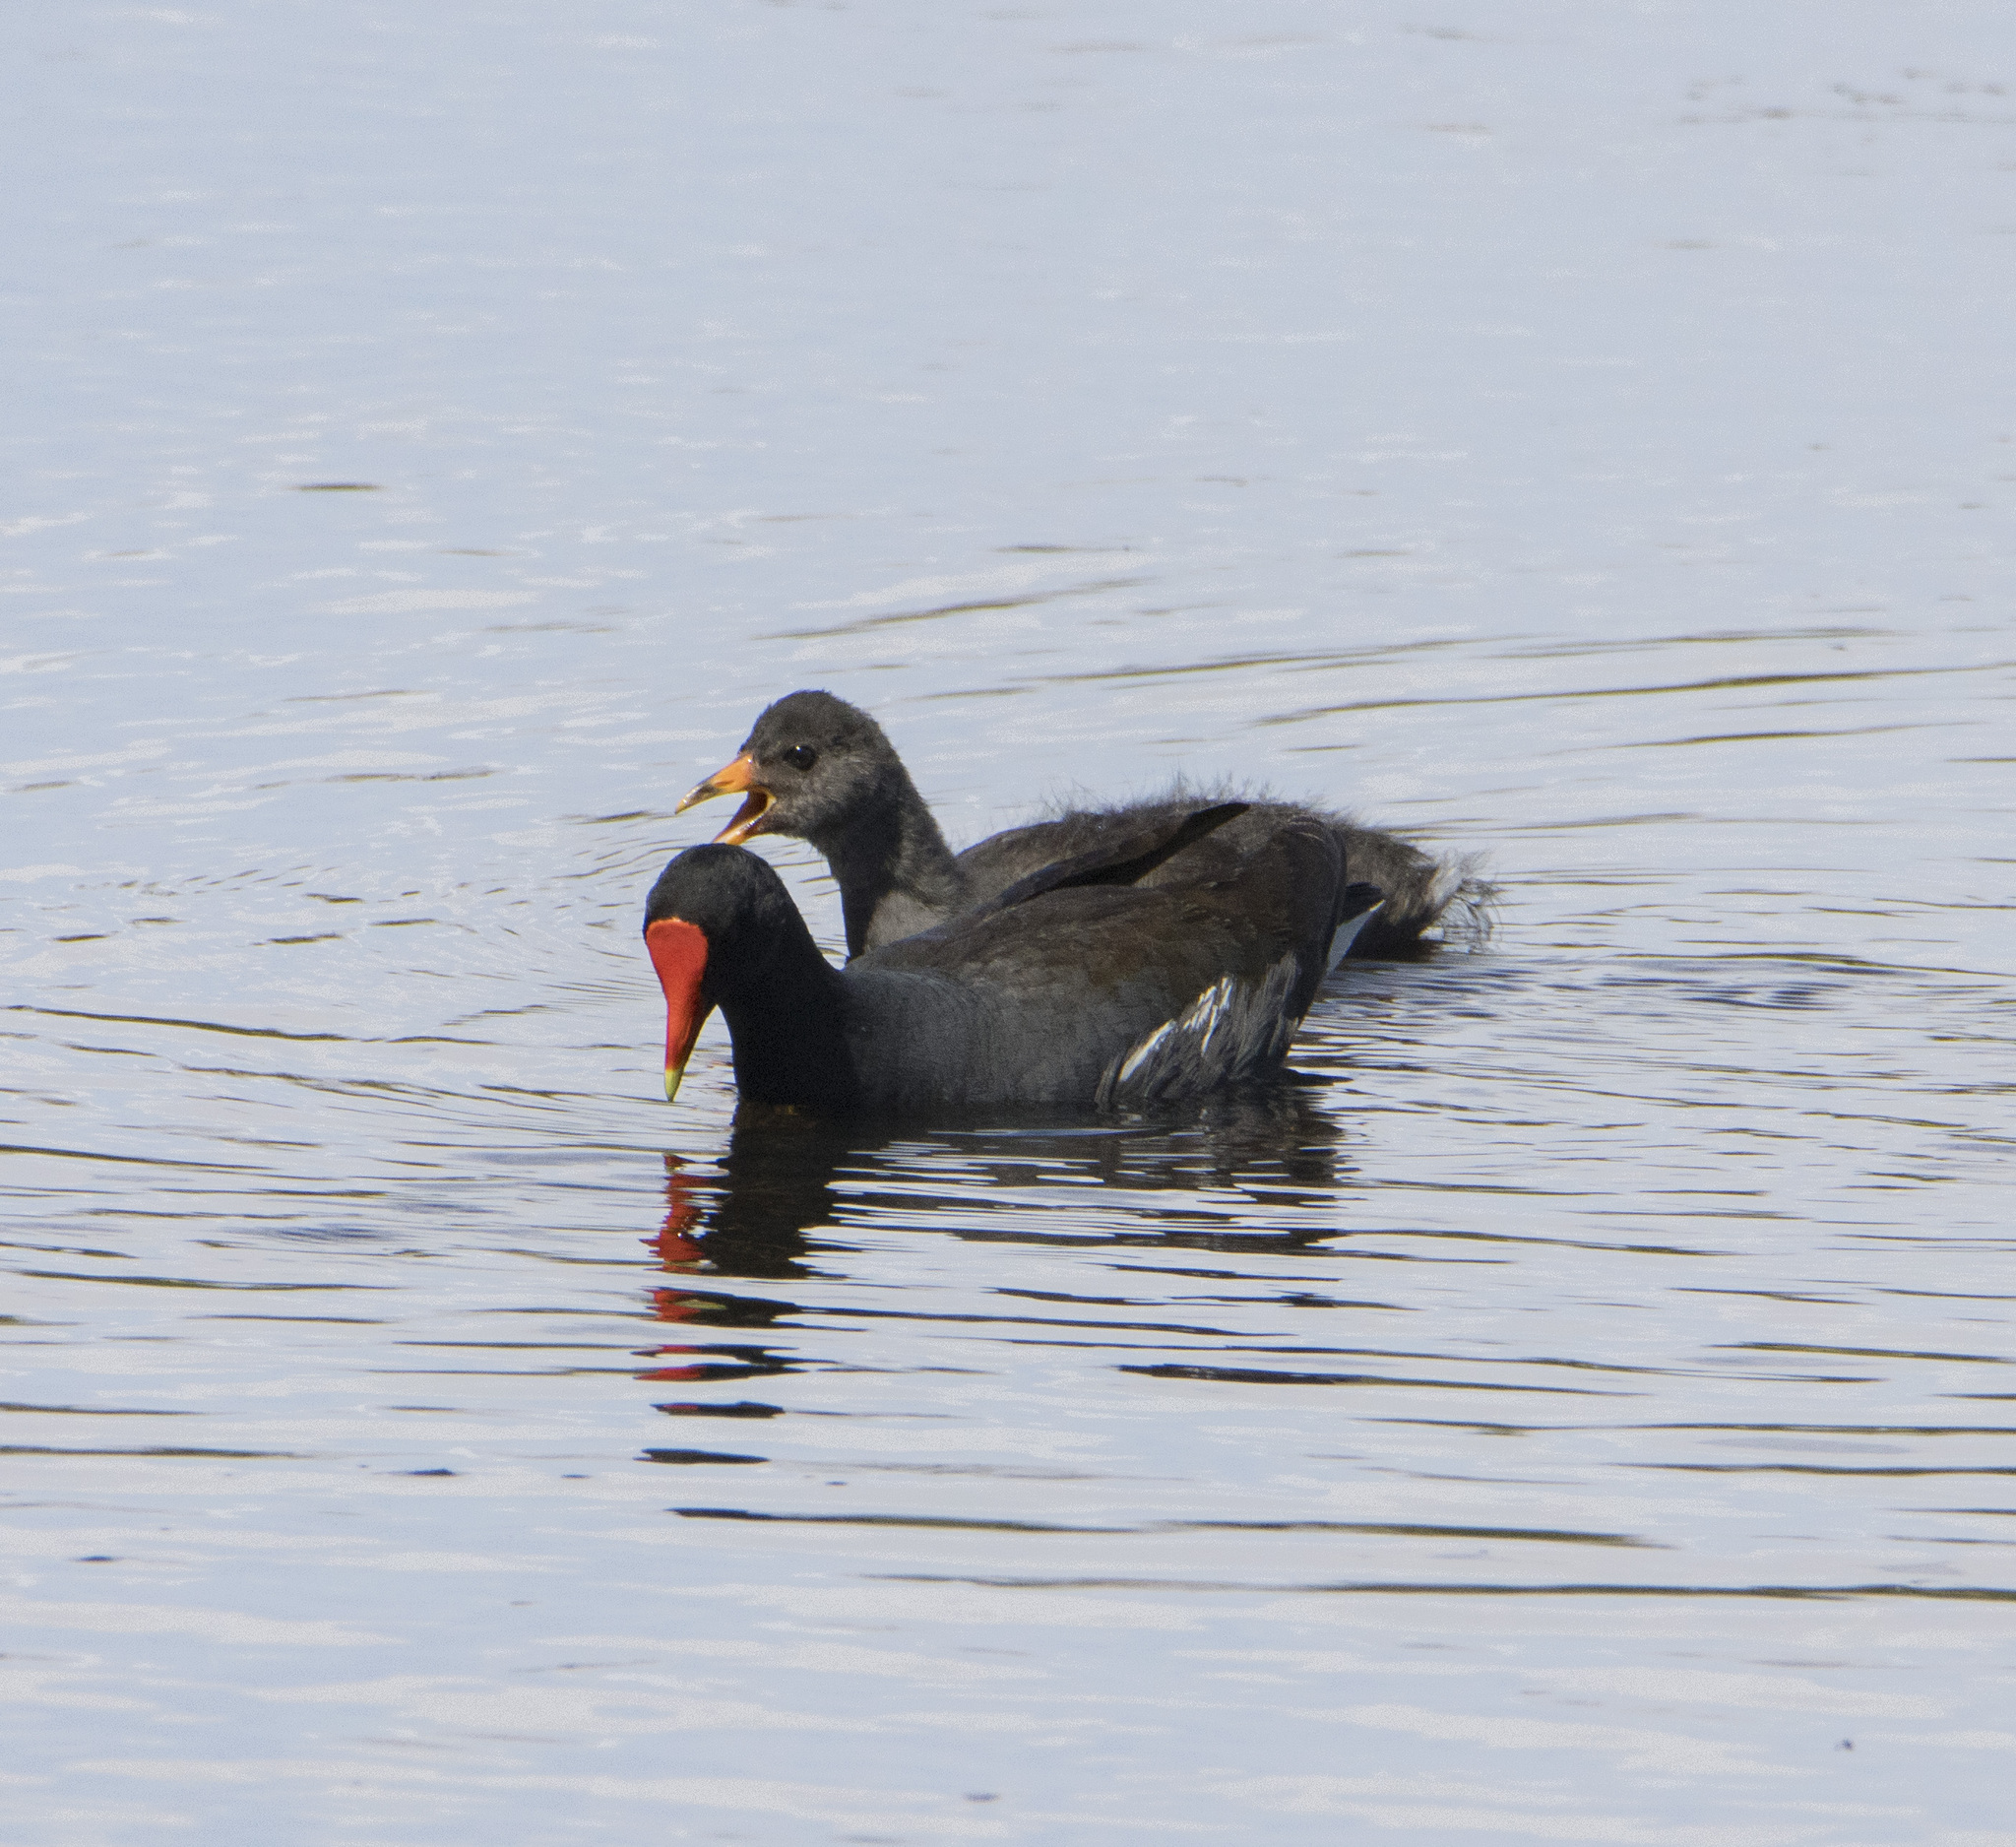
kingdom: Animalia
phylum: Chordata
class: Aves
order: Gruiformes
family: Rallidae
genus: Gallinula
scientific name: Gallinula chloropus
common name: Common moorhen
